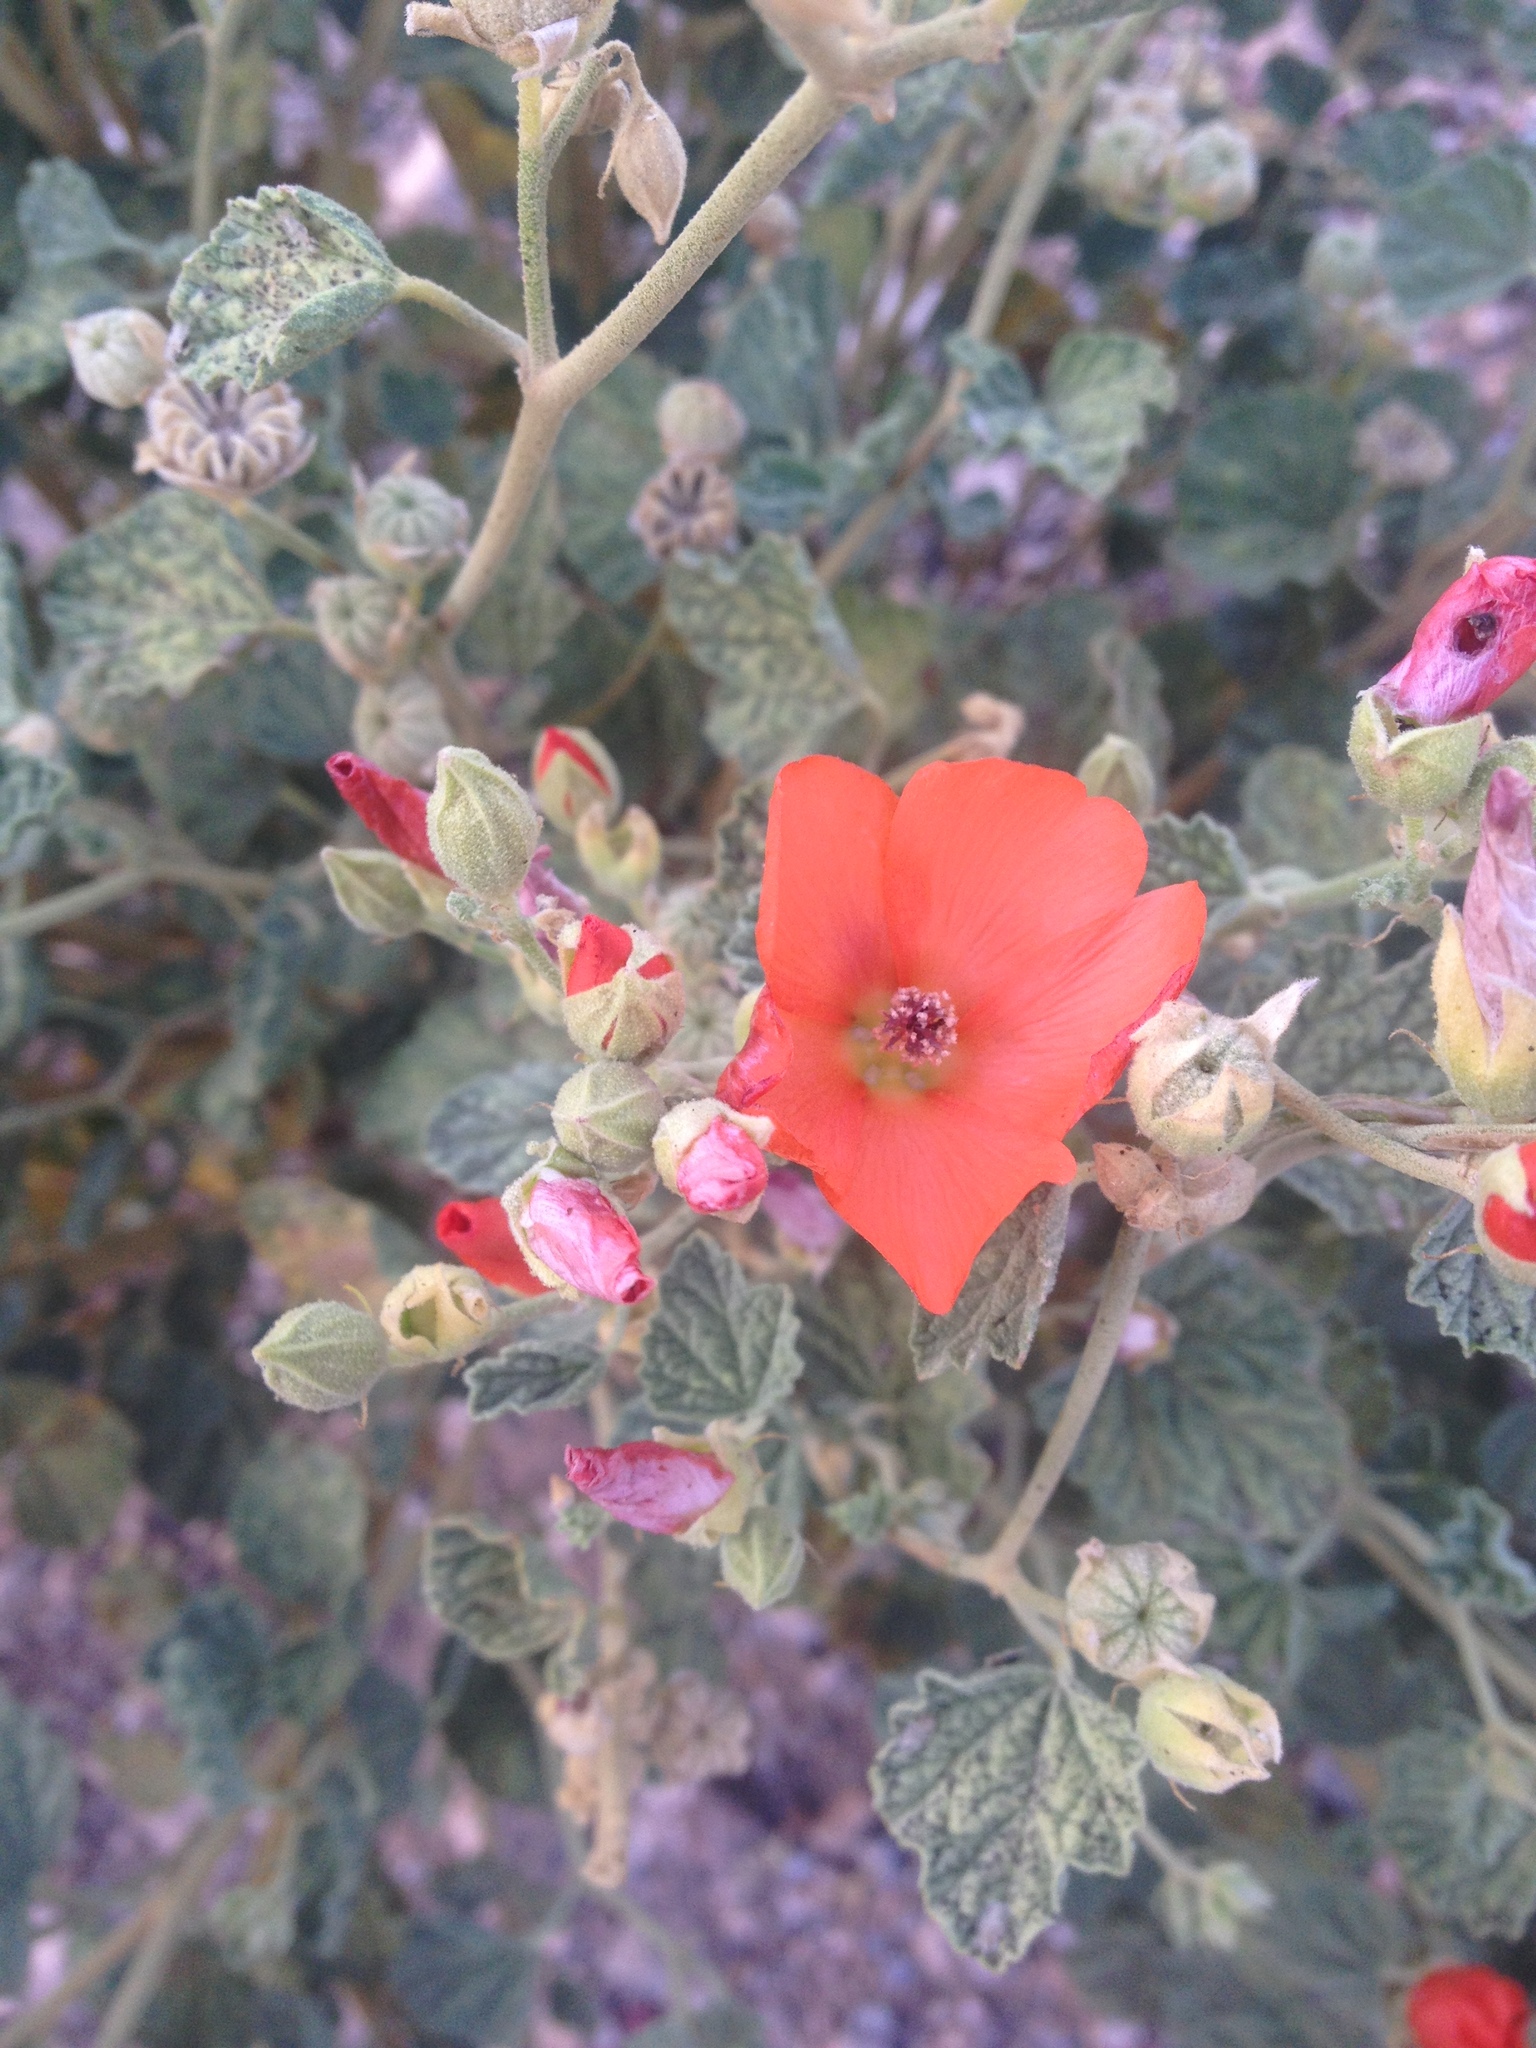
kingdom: Plantae
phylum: Tracheophyta
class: Magnoliopsida
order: Malvales
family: Malvaceae
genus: Sphaeralcea
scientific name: Sphaeralcea ambigua
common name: Apricot globe-mallow
